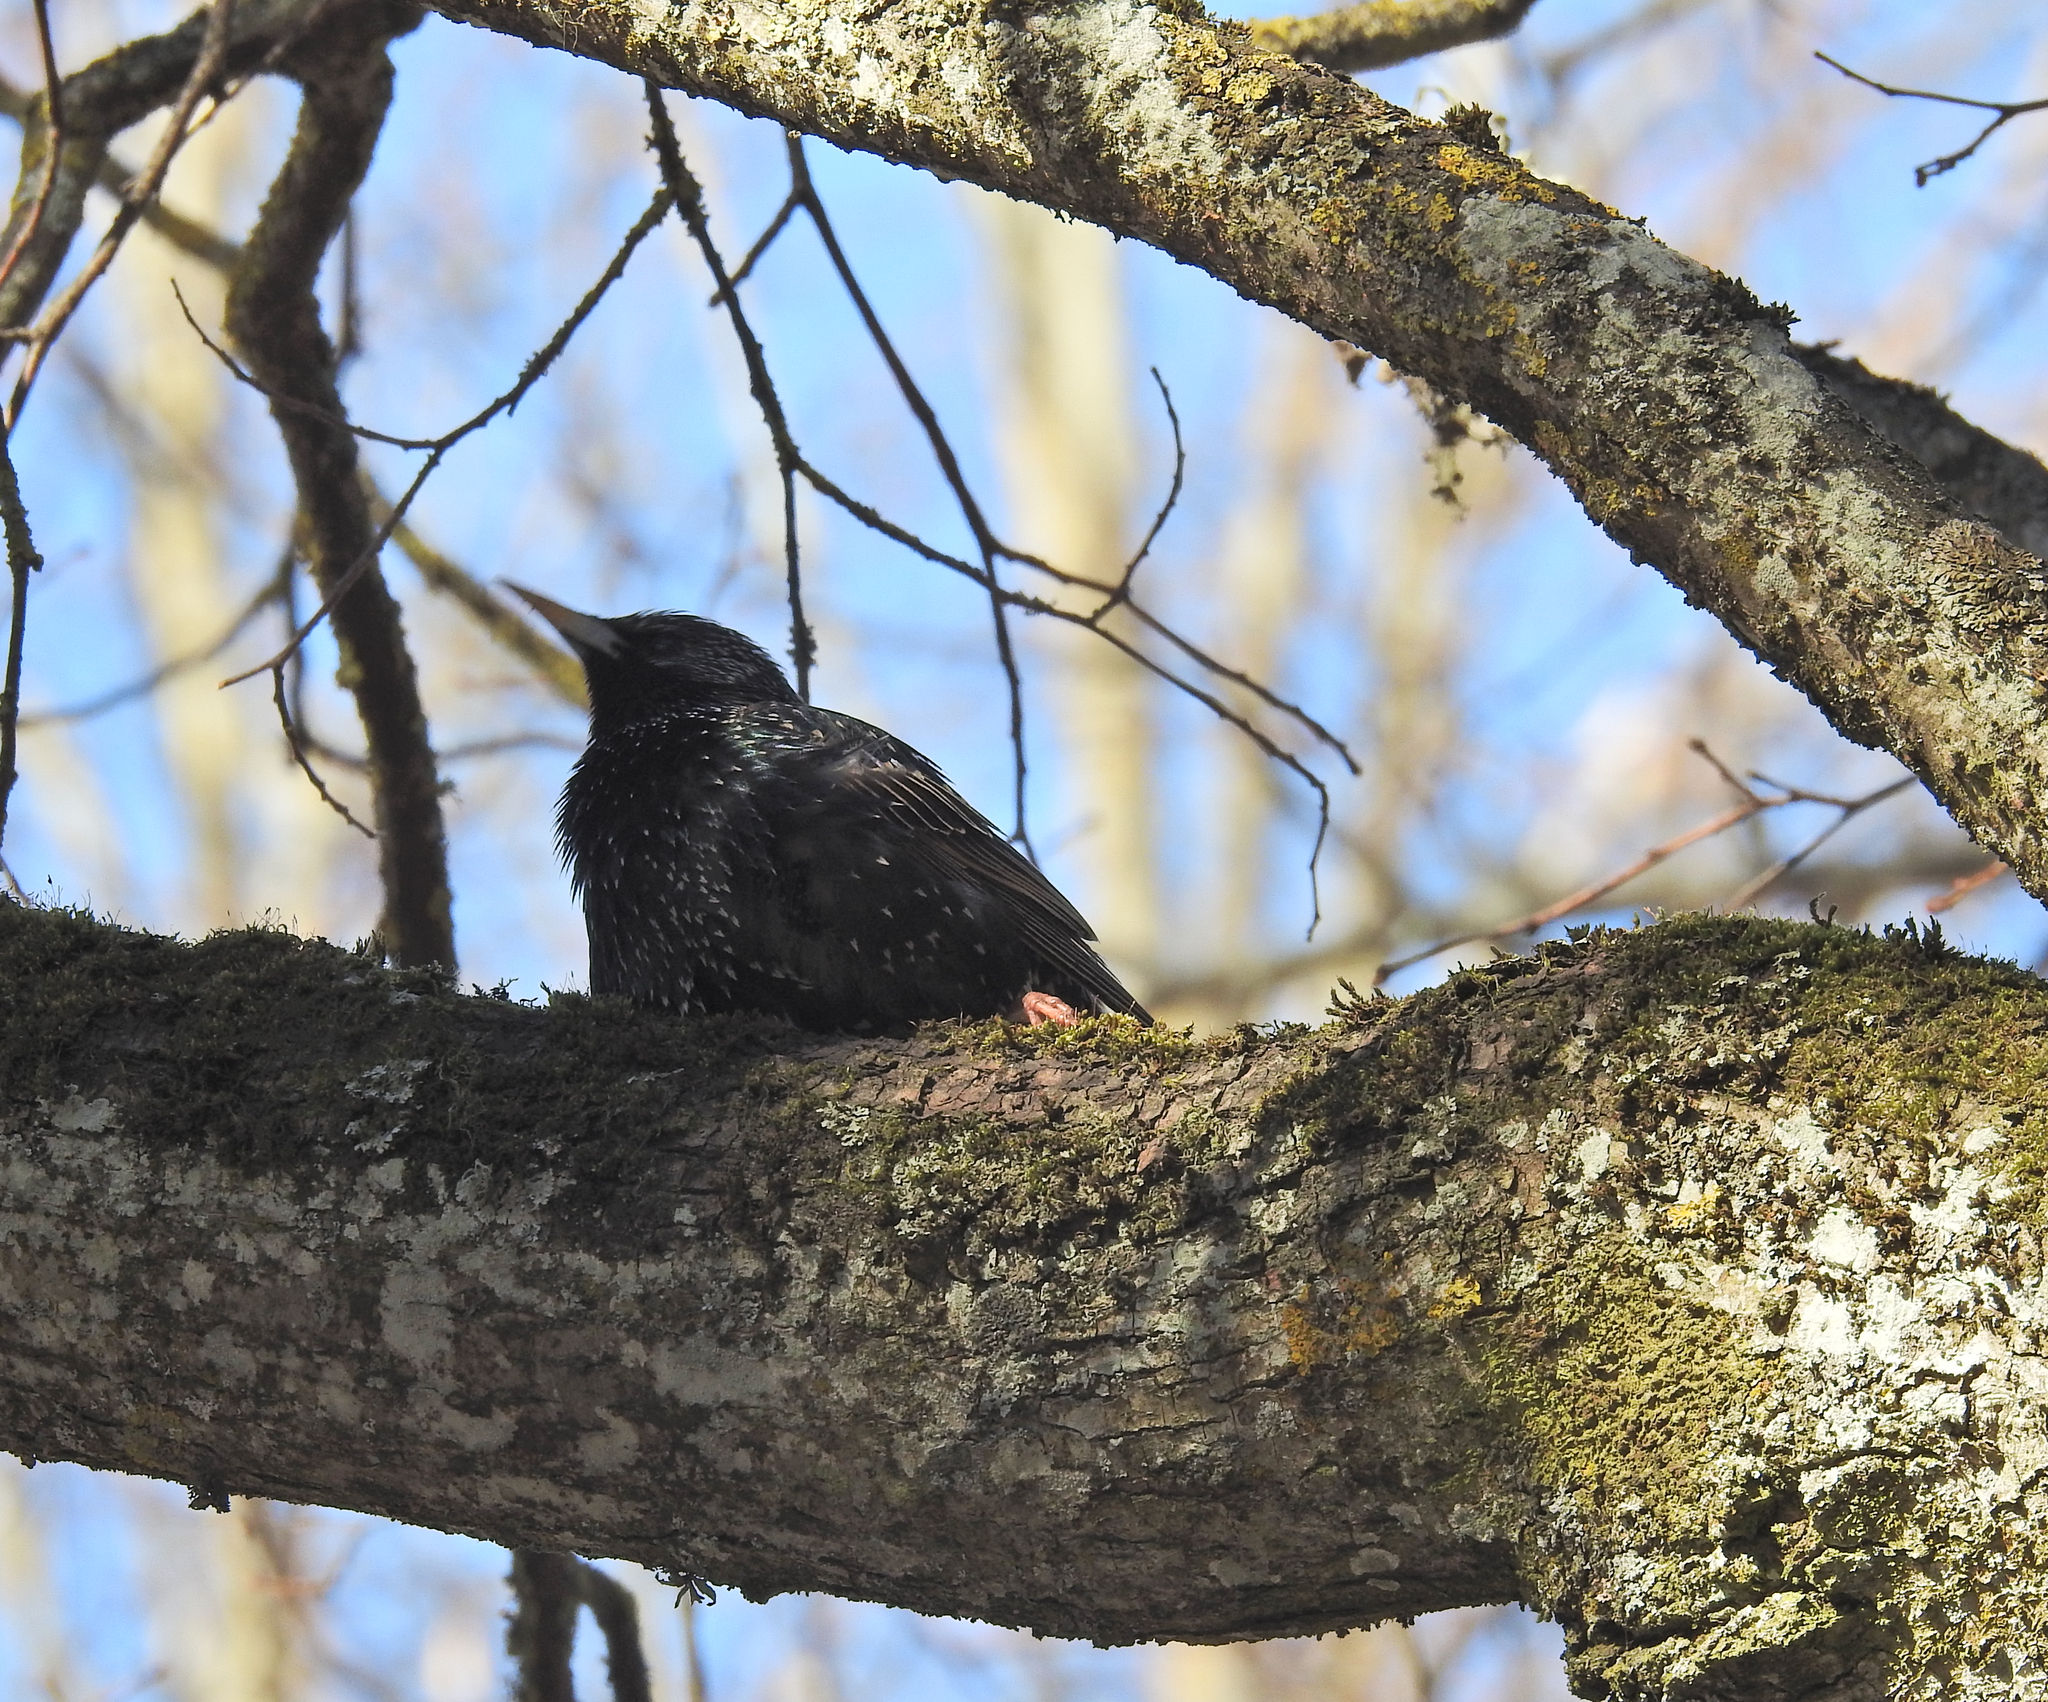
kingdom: Animalia
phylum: Chordata
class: Aves
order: Passeriformes
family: Sturnidae
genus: Sturnus
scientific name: Sturnus vulgaris
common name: Common starling
